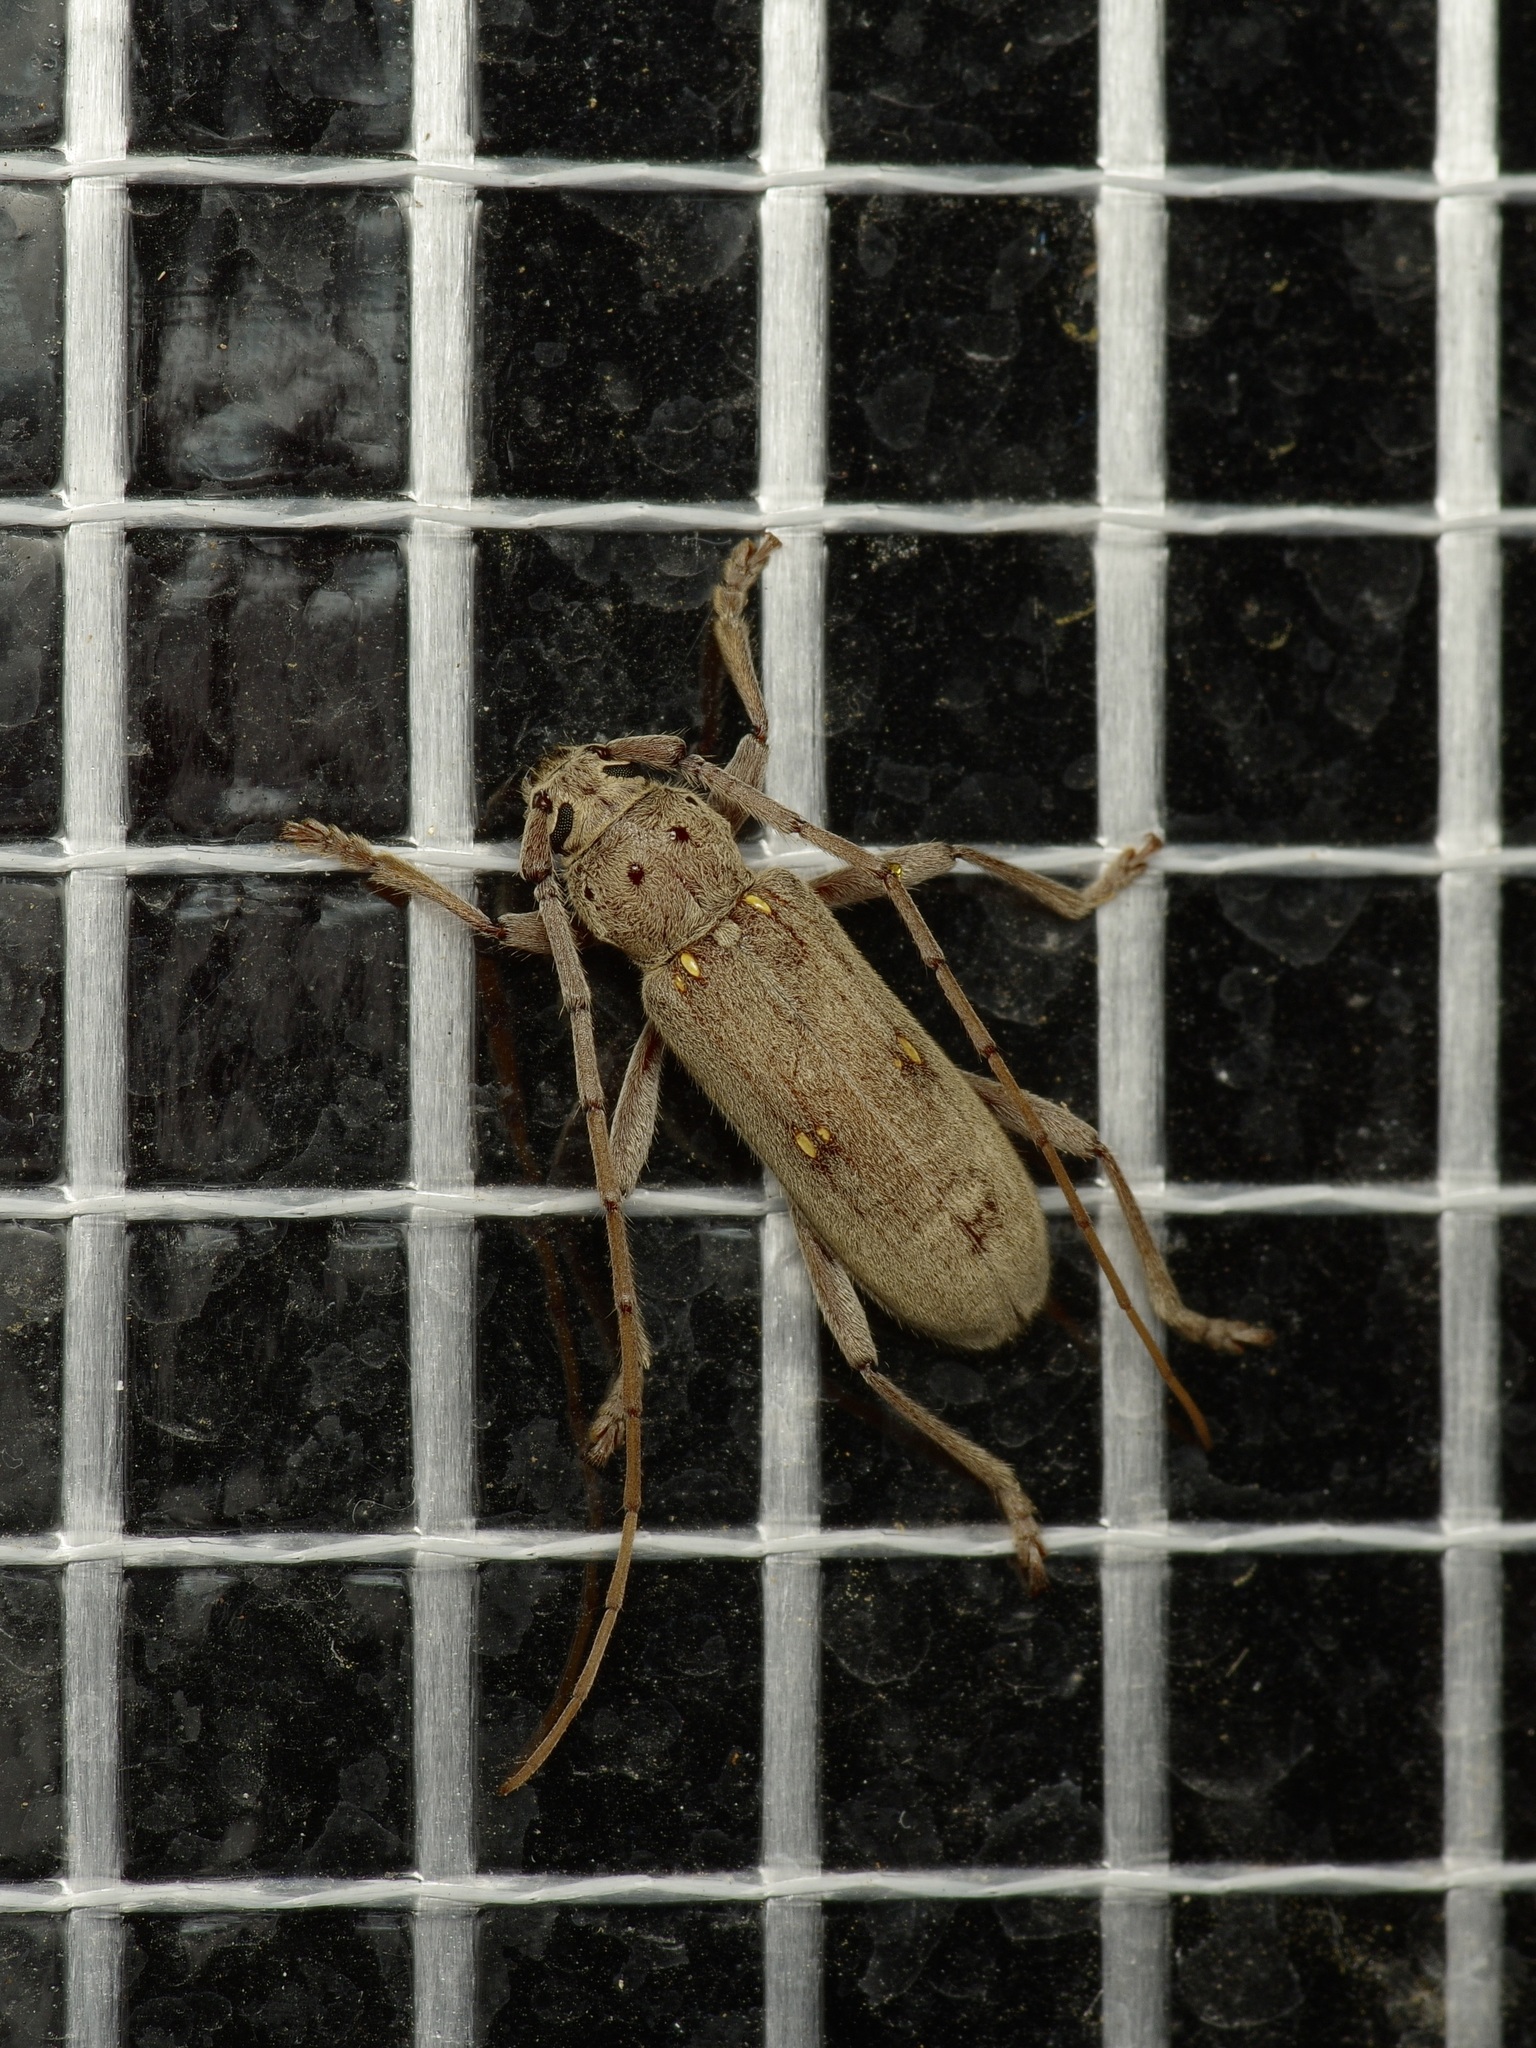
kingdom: Animalia
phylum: Arthropoda
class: Insecta
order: Coleoptera
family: Cerambycidae
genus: Eburia
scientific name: Eburia mutica
